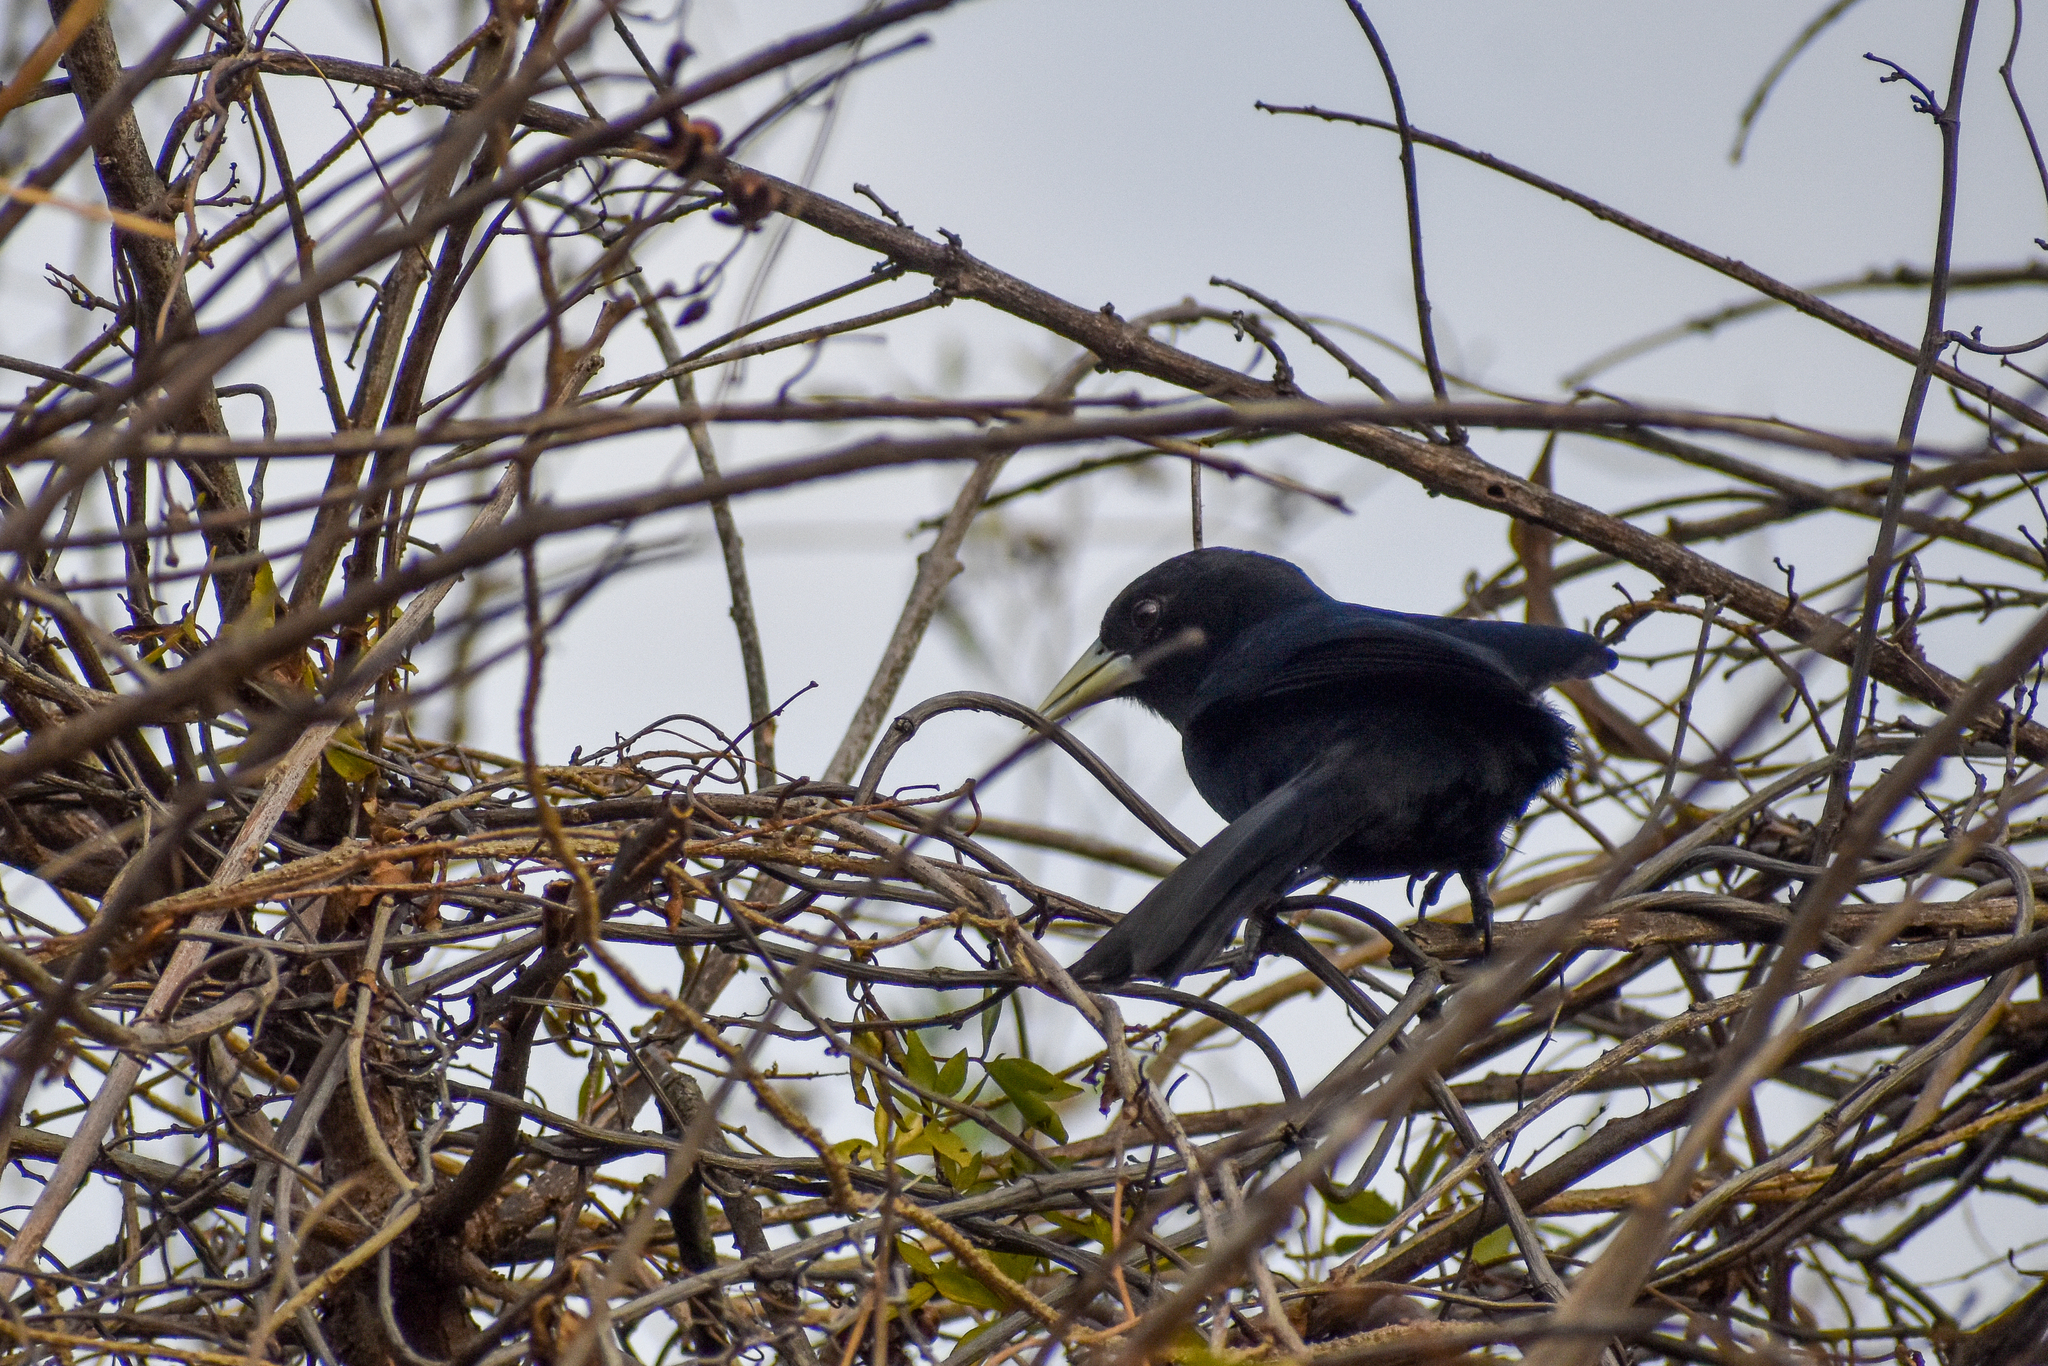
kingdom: Animalia
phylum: Chordata
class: Aves
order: Passeriformes
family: Icteridae
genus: Cacicus
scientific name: Cacicus solitarius
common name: Solitary cacique
